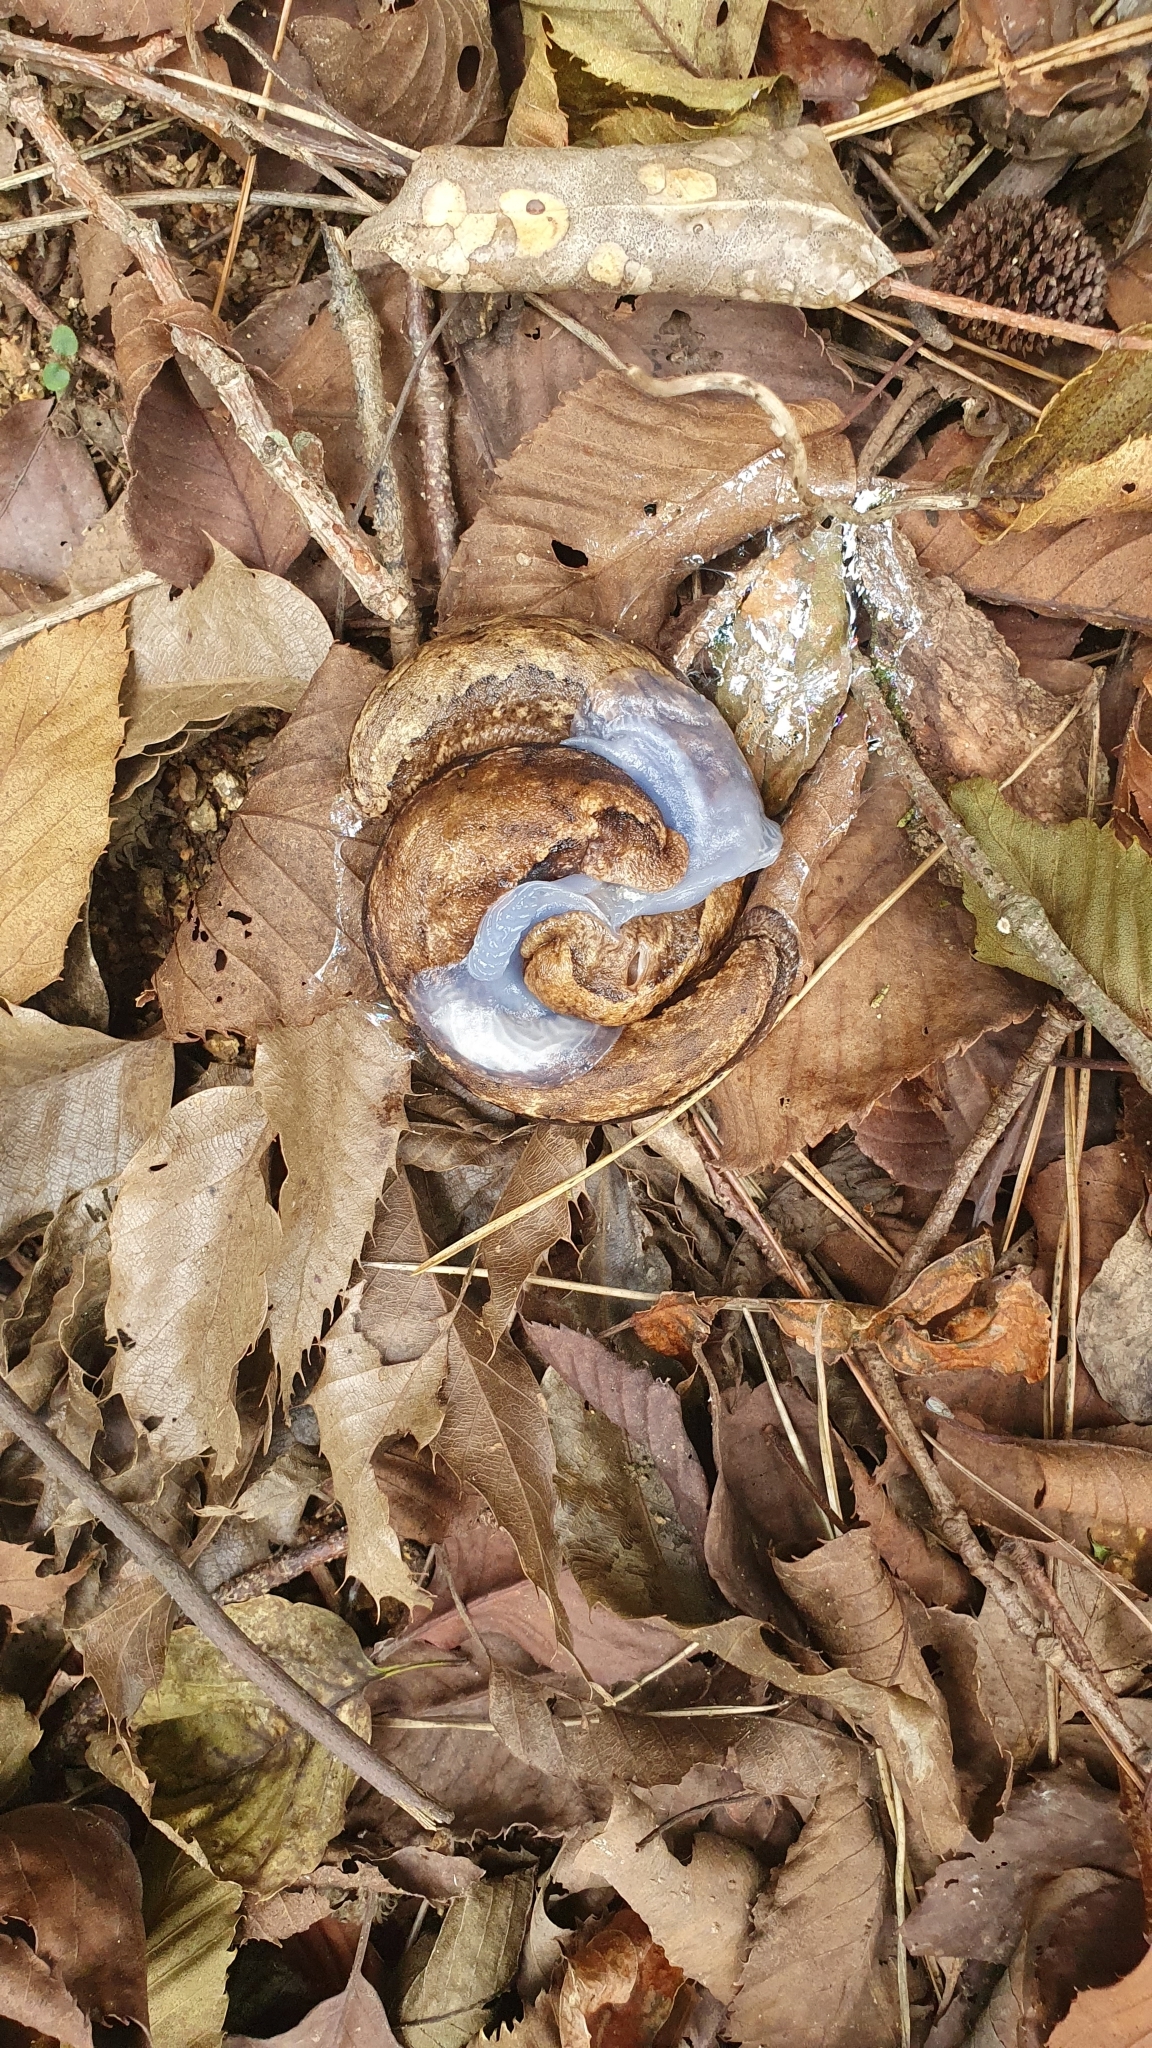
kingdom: Animalia
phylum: Mollusca
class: Gastropoda
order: Stylommatophora
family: Philomycidae
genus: Meghimatium
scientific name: Meghimatium fruhstorferi
